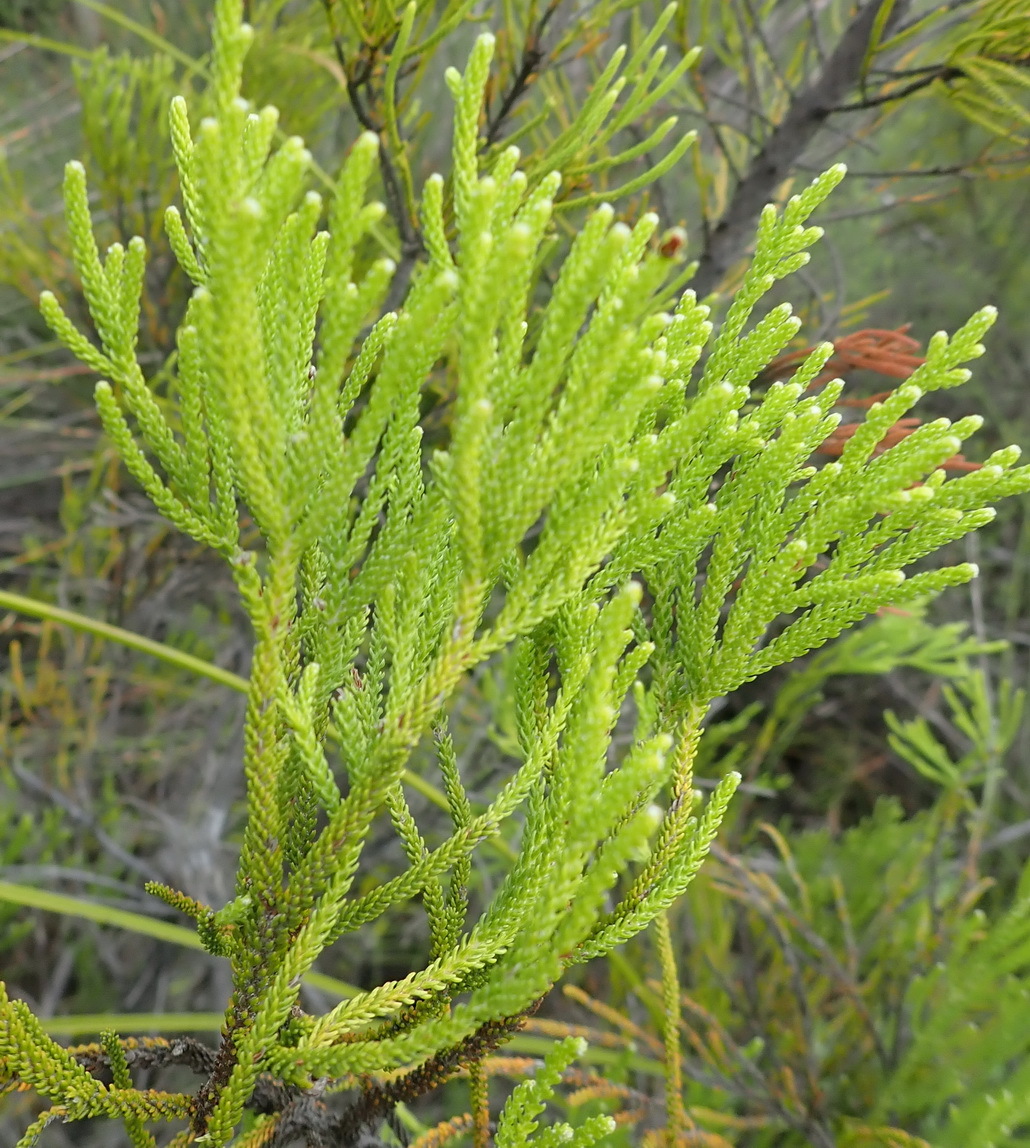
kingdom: Plantae
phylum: Tracheophyta
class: Magnoliopsida
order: Bruniales
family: Bruniaceae
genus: Brunia
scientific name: Brunia noduliflora
